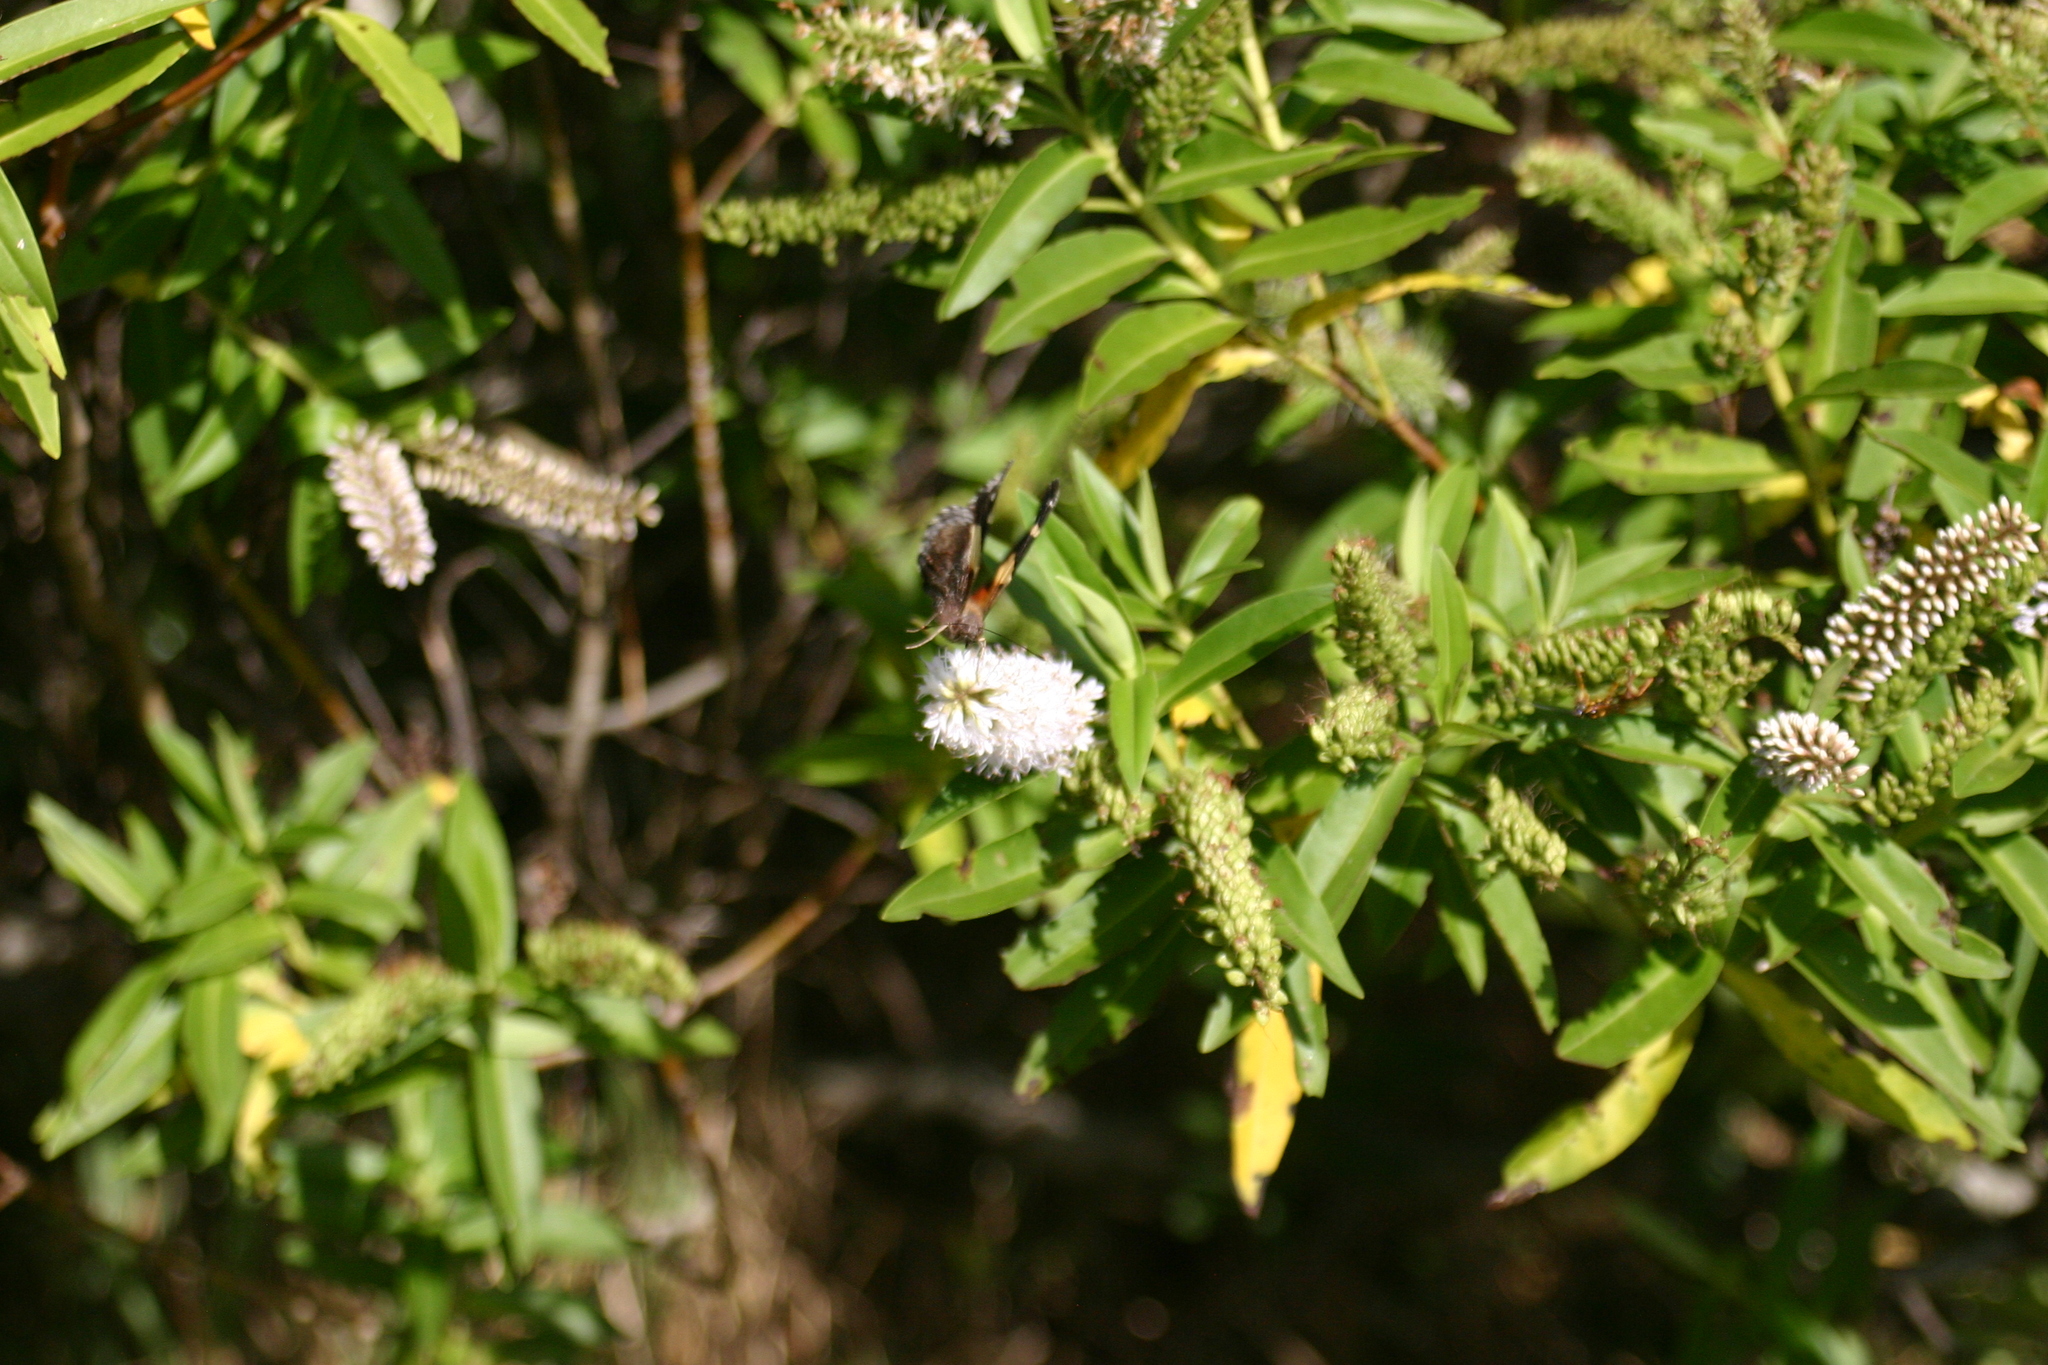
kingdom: Animalia
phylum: Arthropoda
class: Insecta
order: Lepidoptera
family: Nymphalidae
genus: Vanessa
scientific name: Vanessa itea
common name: Yellow admiral
